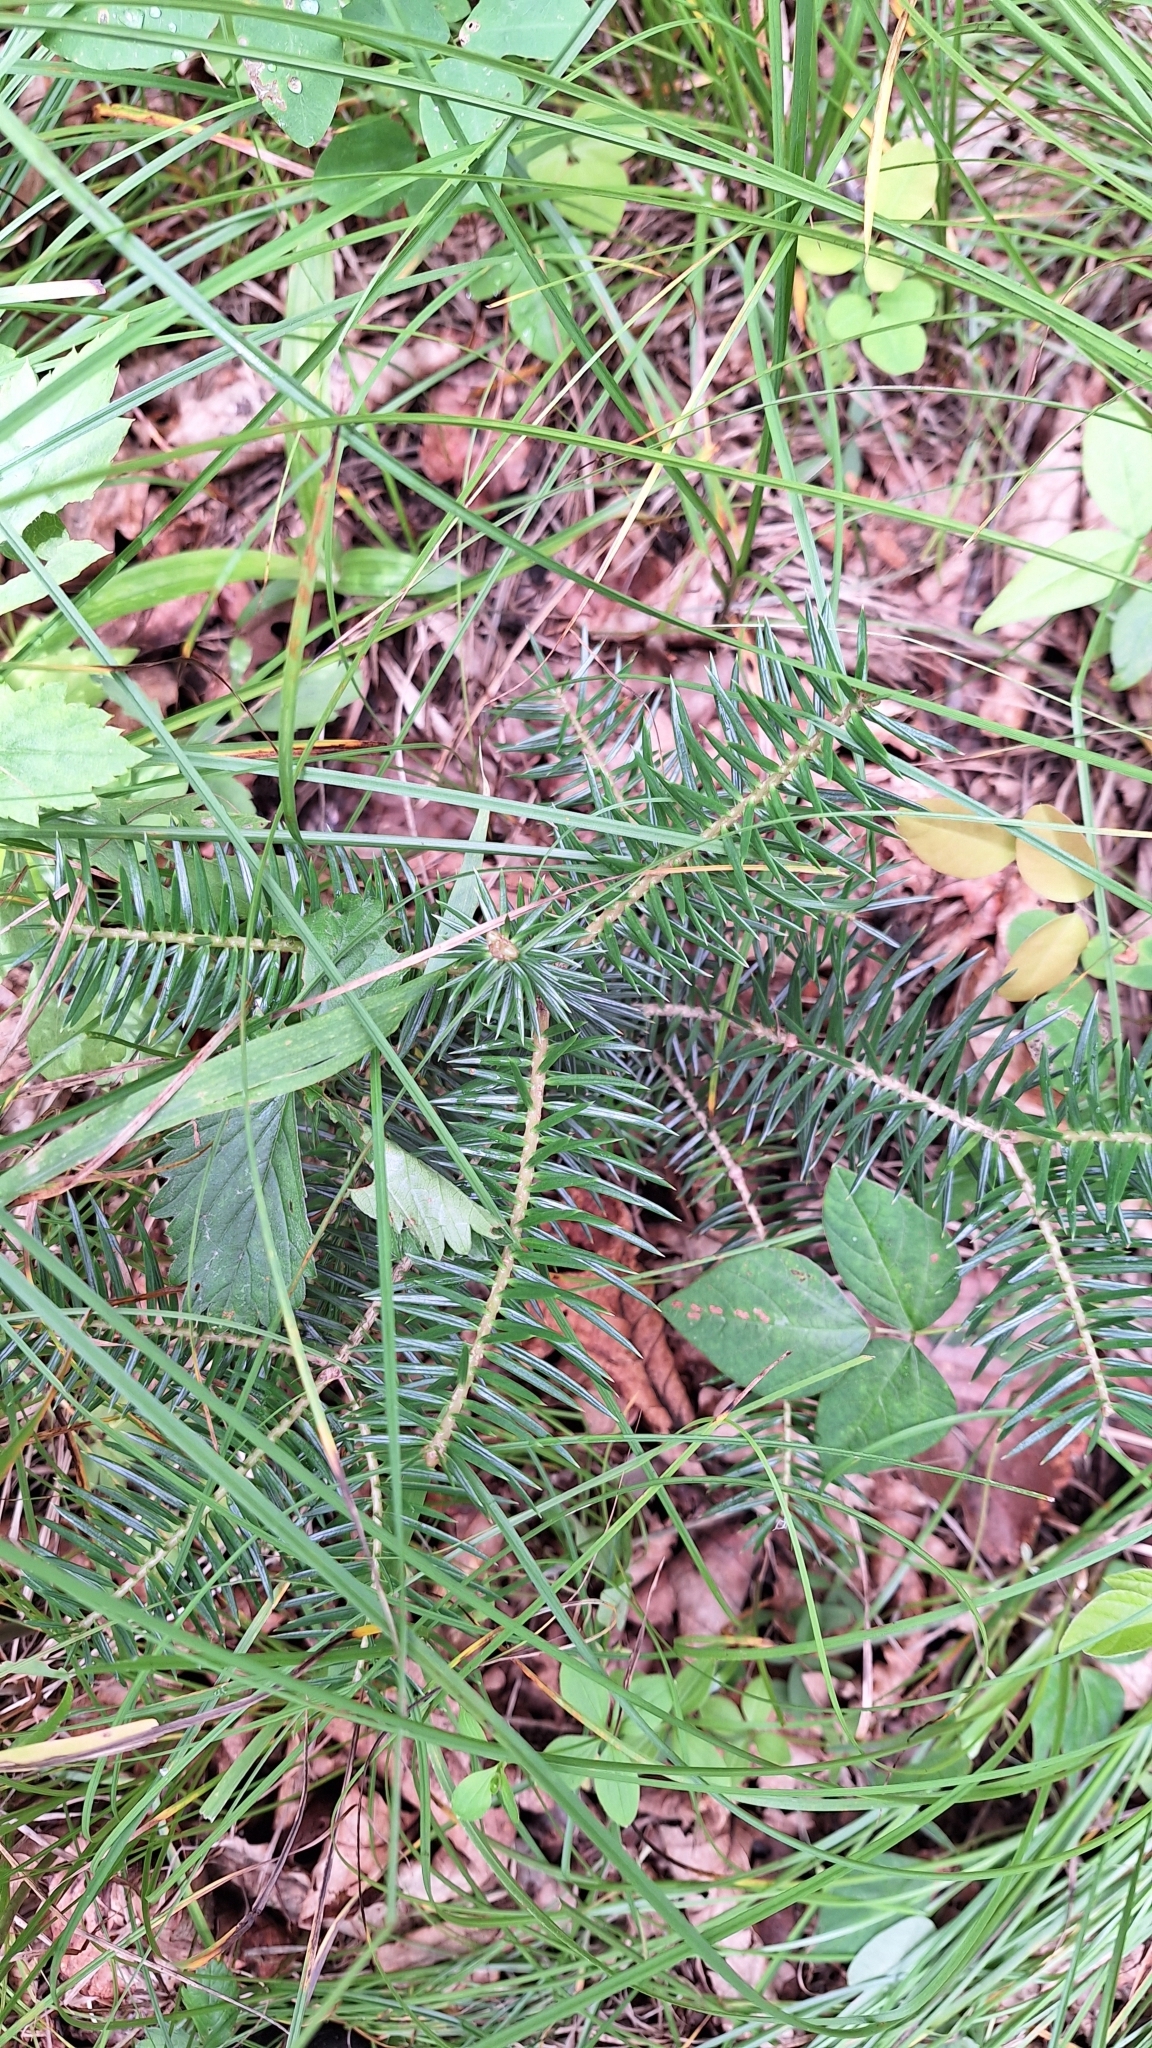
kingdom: Plantae
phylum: Tracheophyta
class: Pinopsida
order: Pinales
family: Pinaceae
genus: Abies
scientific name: Abies holophylla
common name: Manchurian fir
